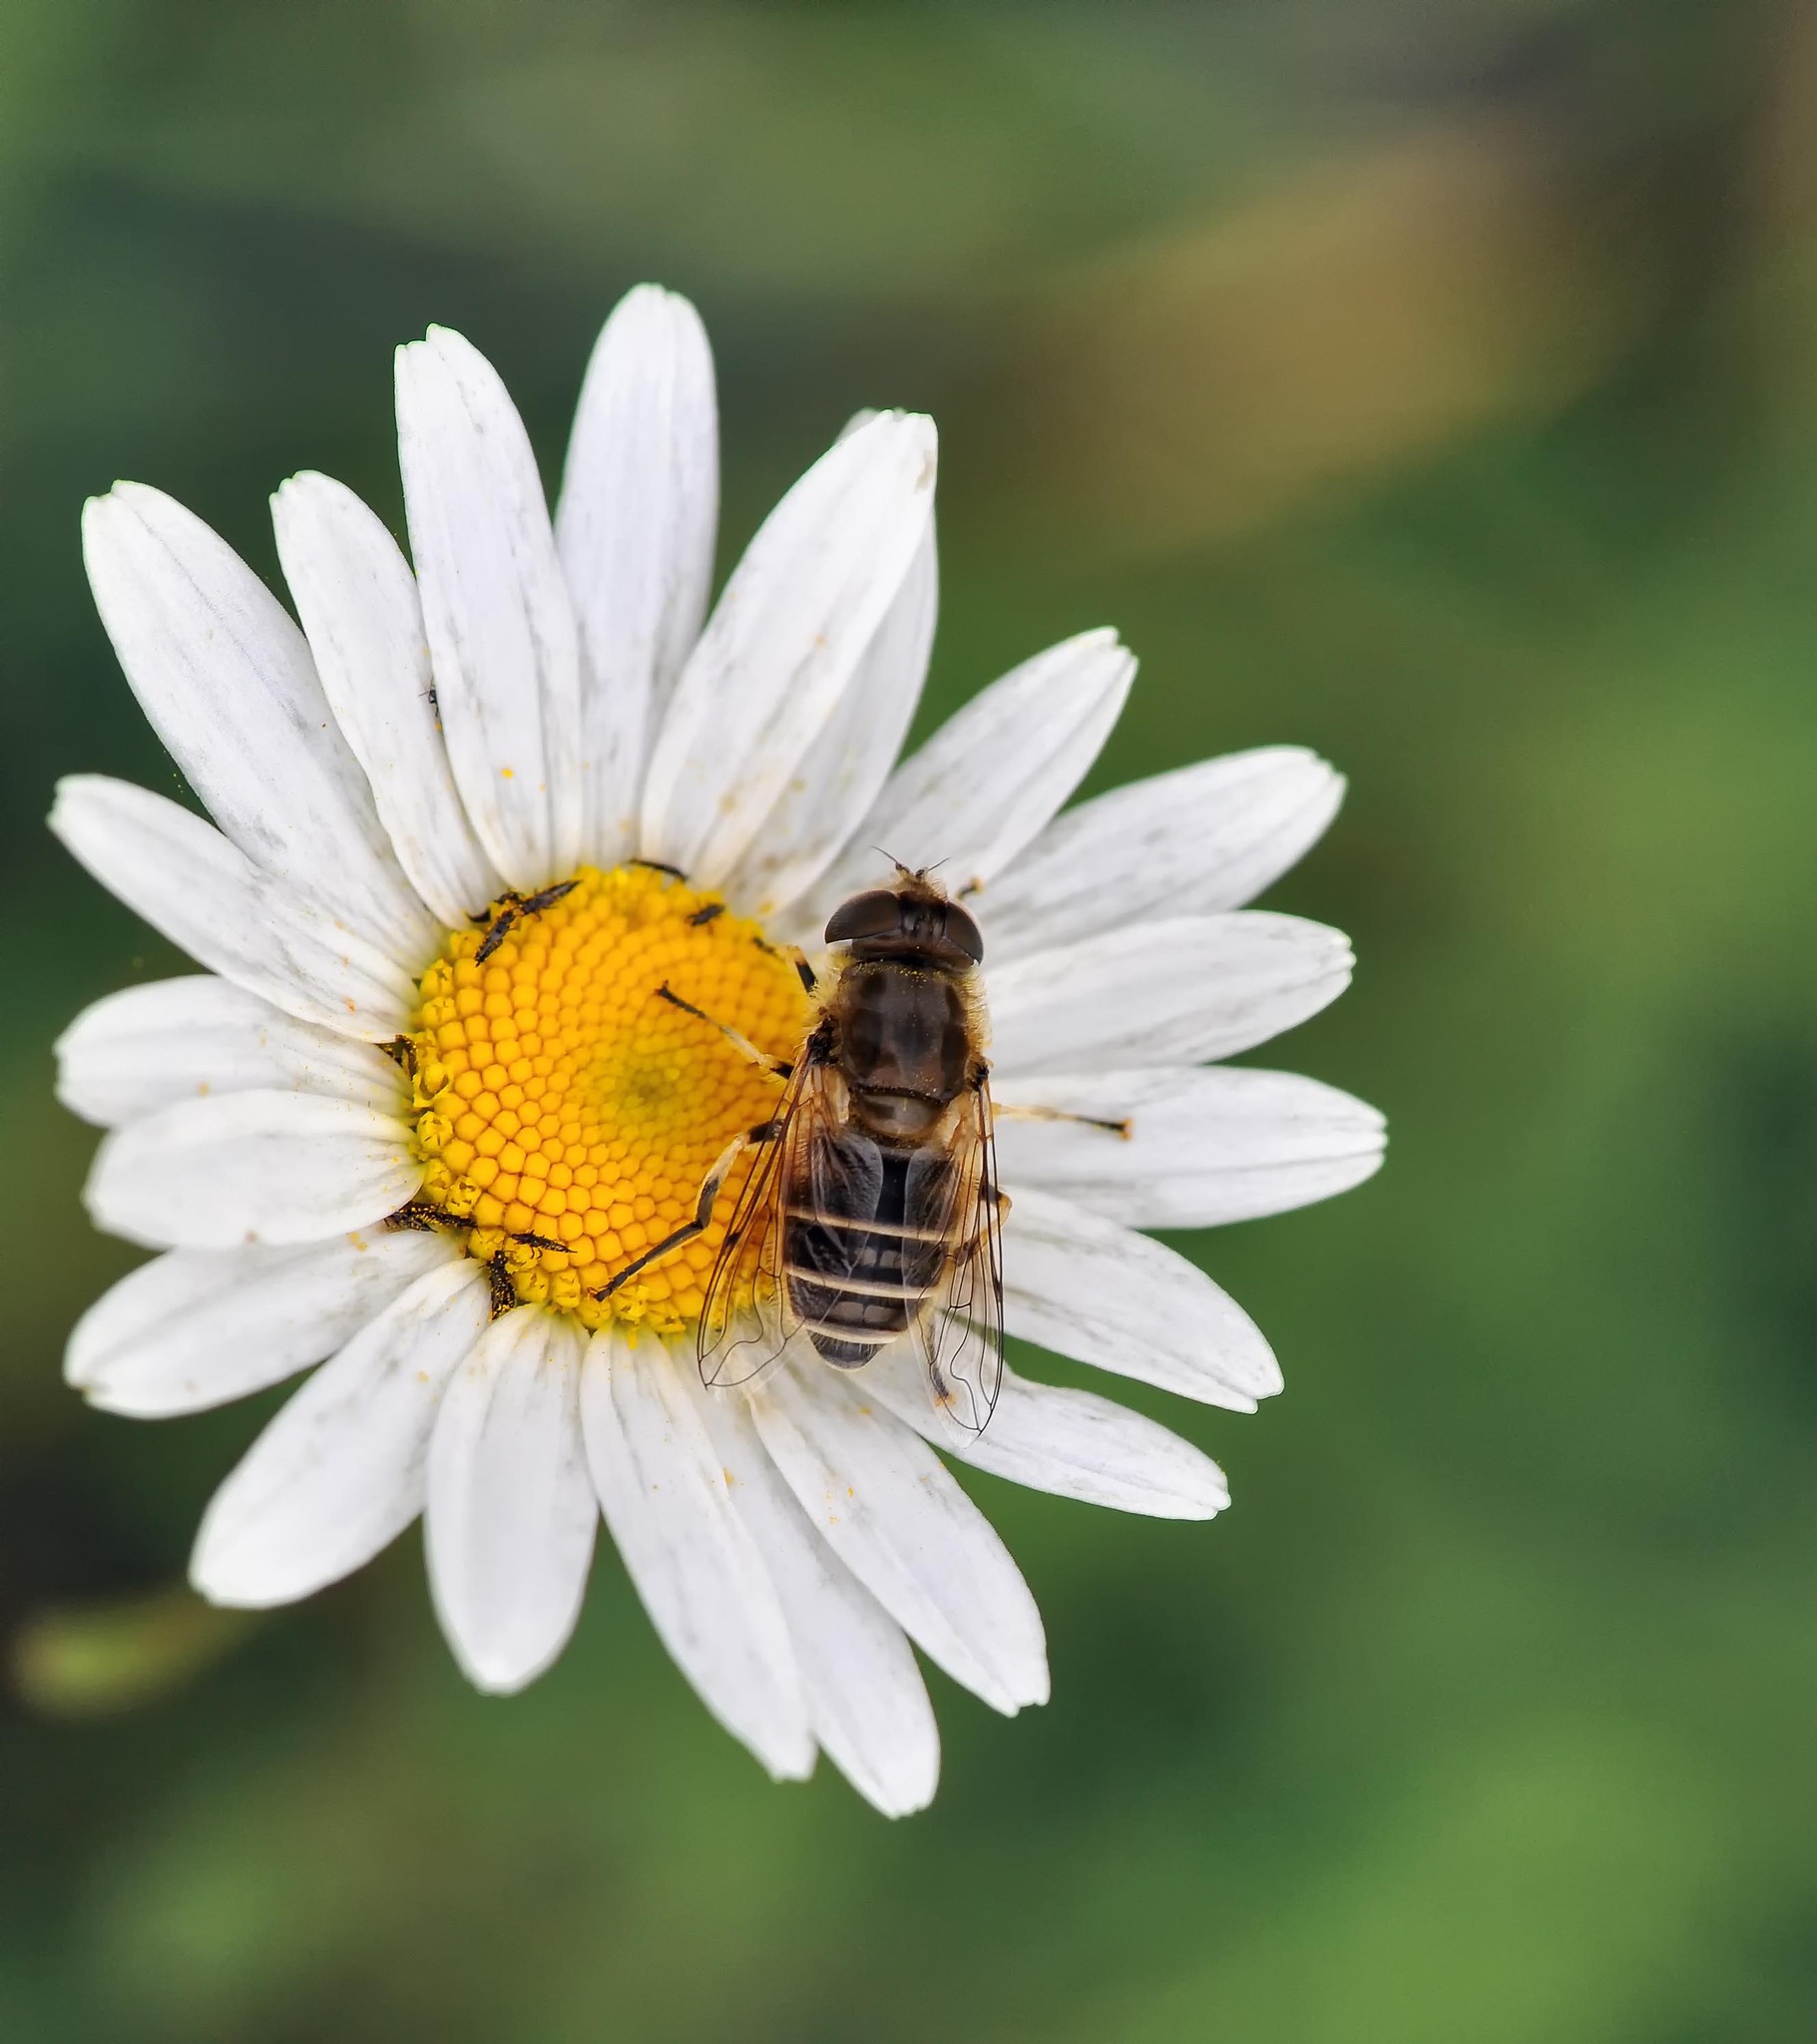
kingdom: Animalia
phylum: Arthropoda
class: Insecta
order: Diptera
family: Syrphidae
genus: Eristalis
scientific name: Eristalis arbustorum
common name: Hover fly
